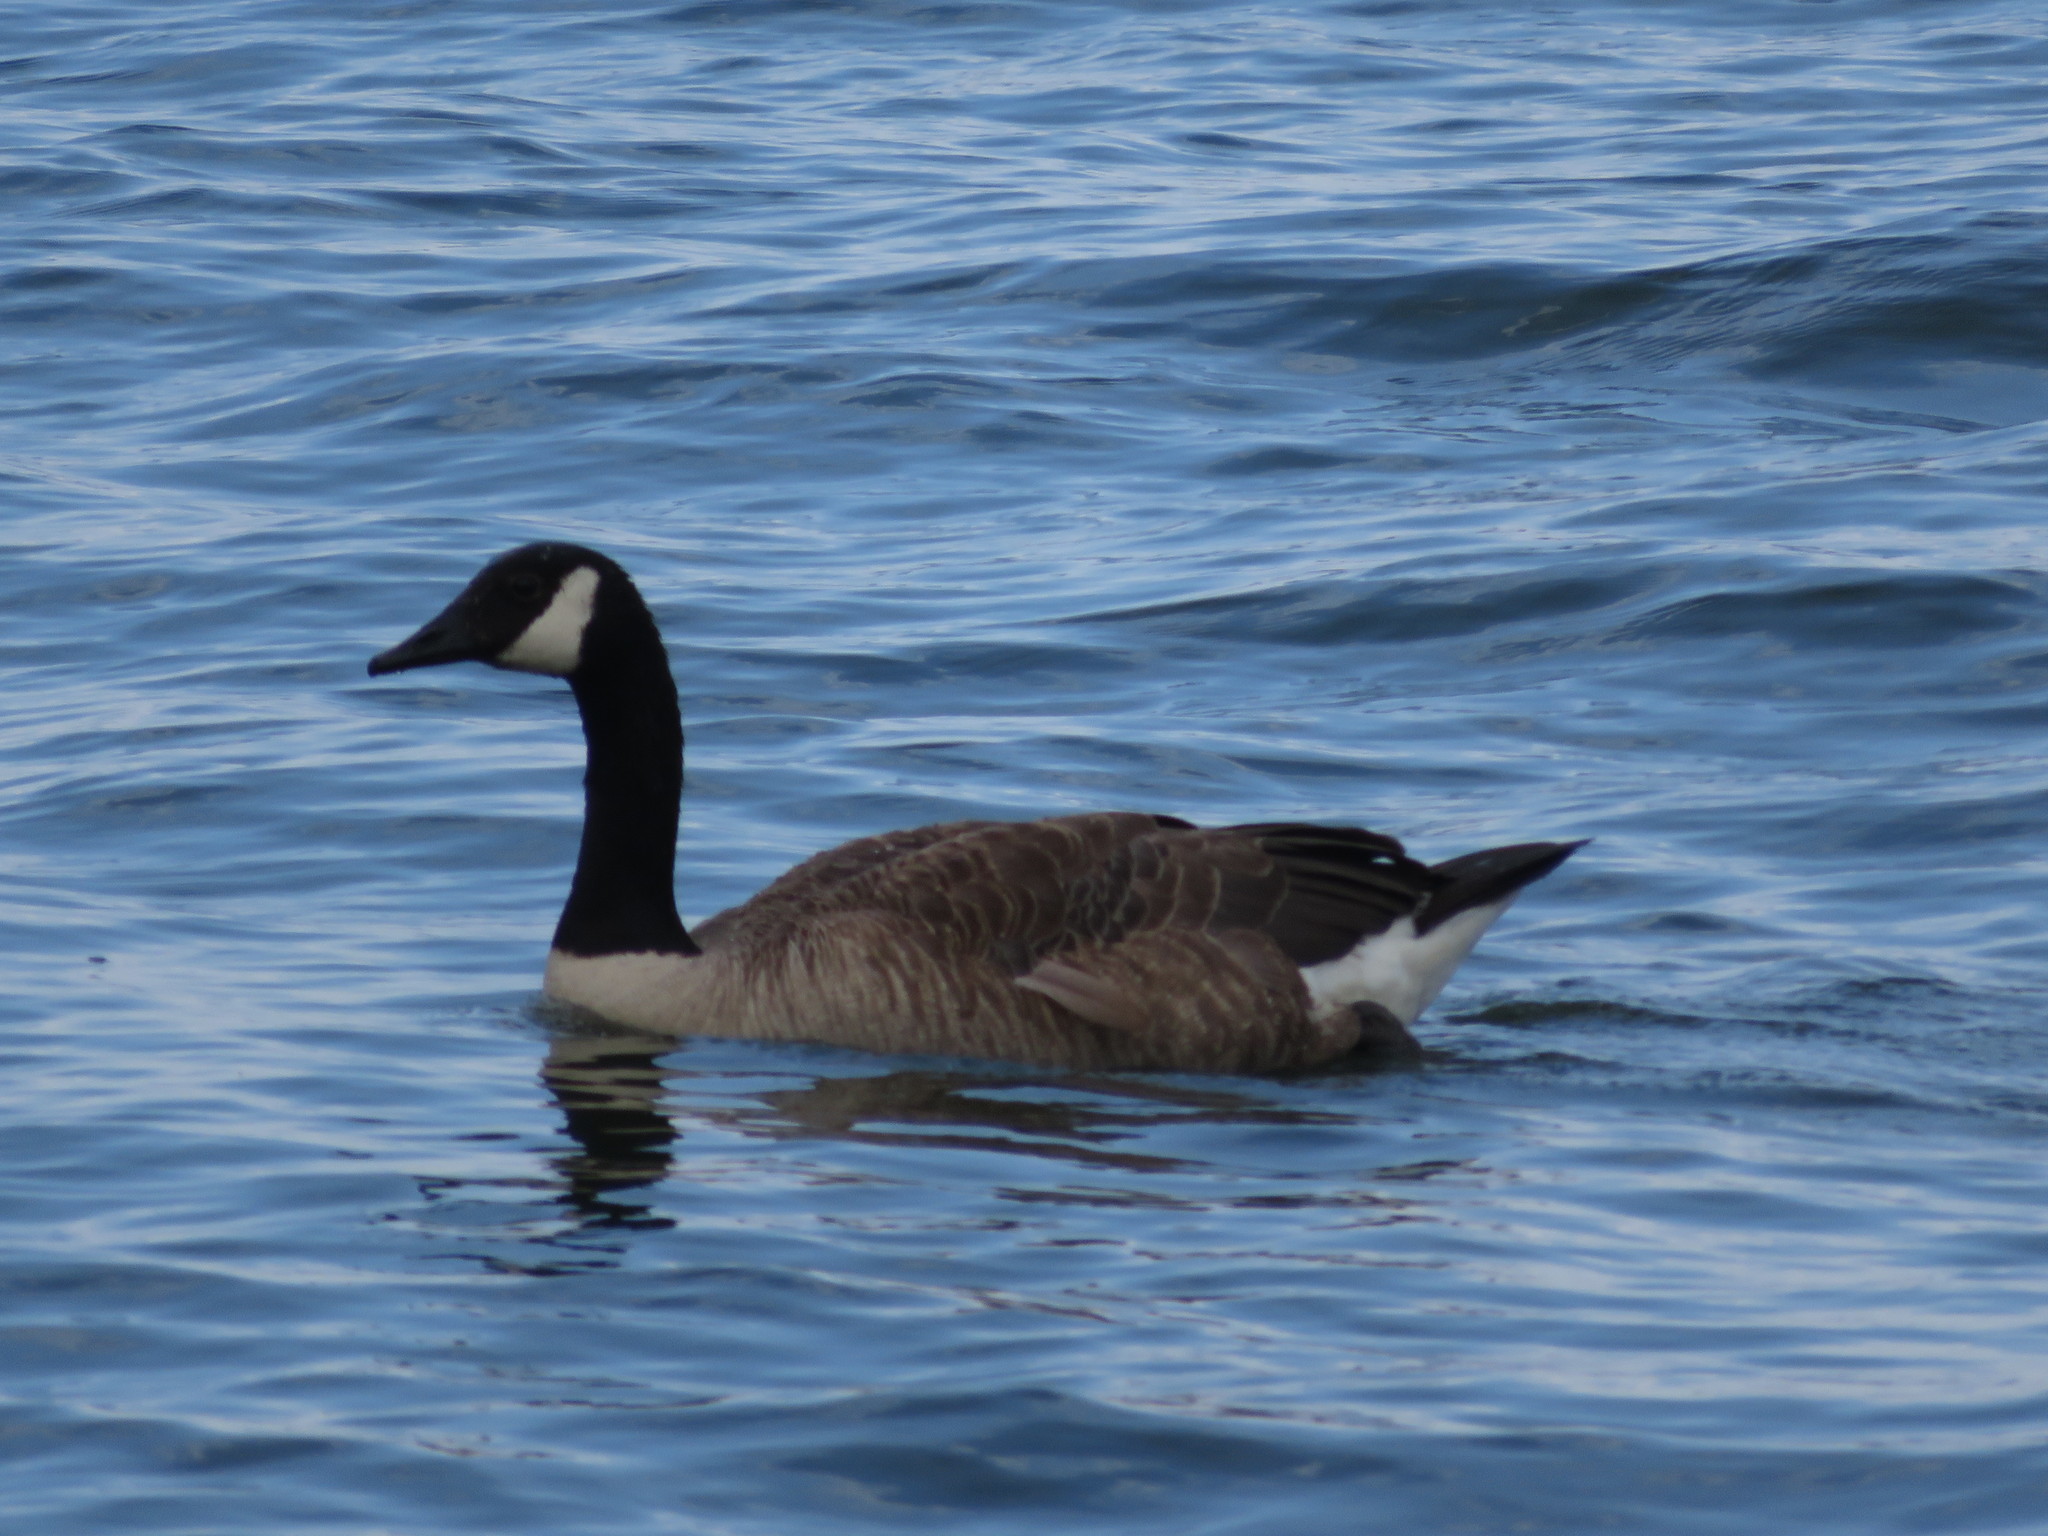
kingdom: Animalia
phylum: Chordata
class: Aves
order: Anseriformes
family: Anatidae
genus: Branta
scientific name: Branta canadensis
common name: Canada goose
